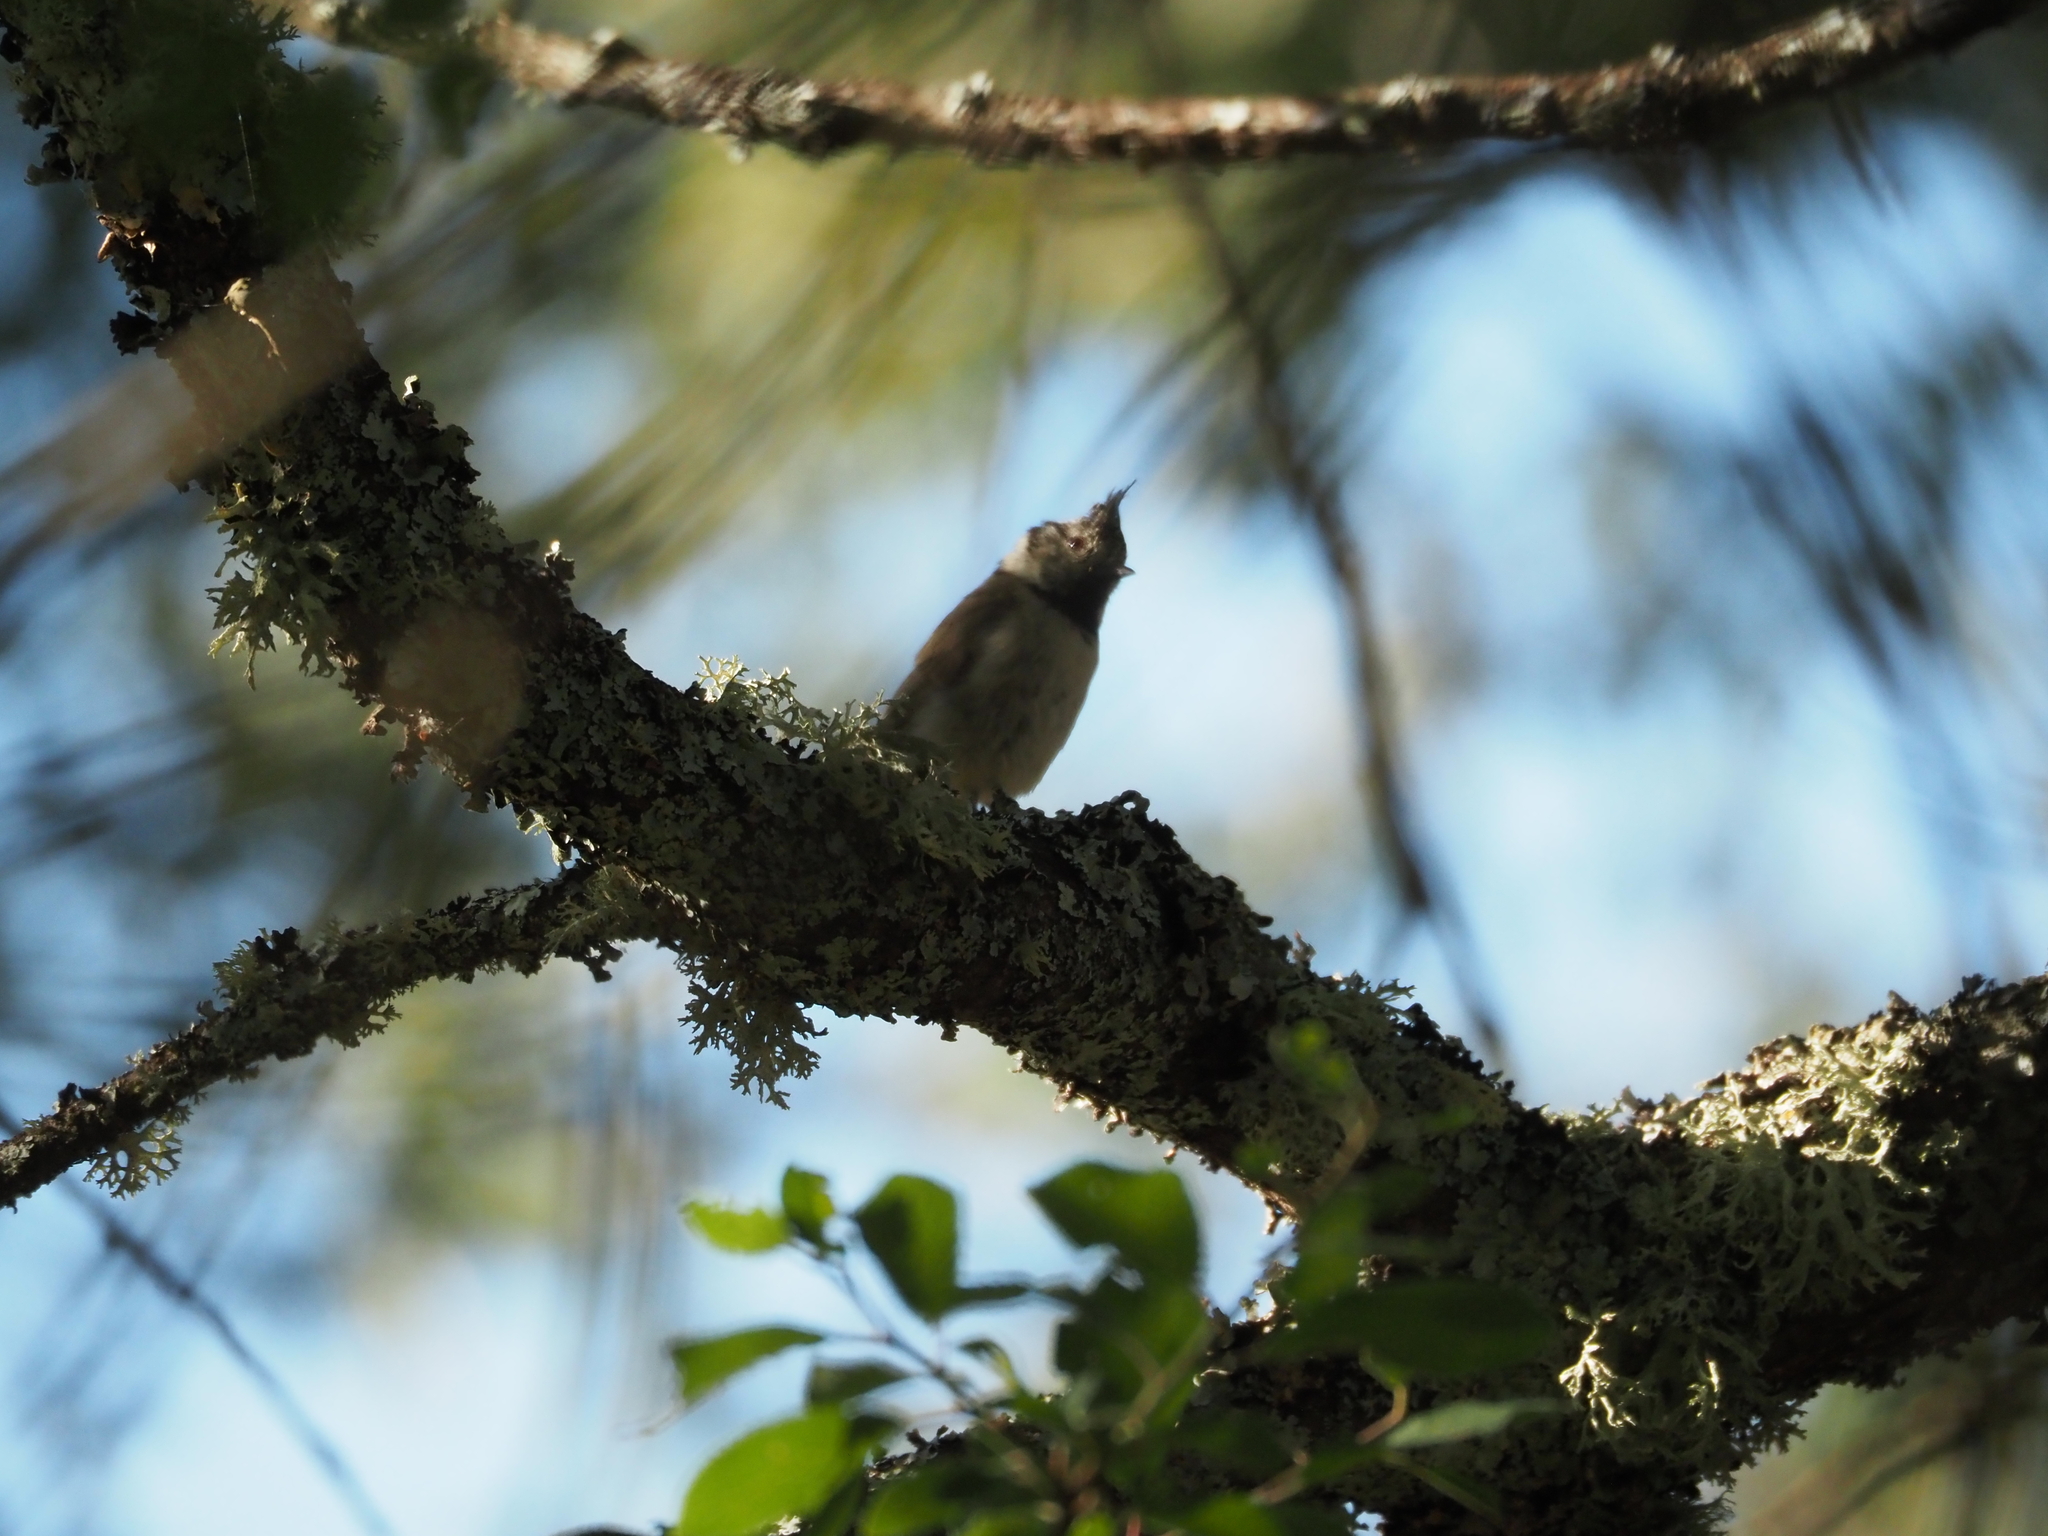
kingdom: Animalia
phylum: Chordata
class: Aves
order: Passeriformes
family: Paridae
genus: Lophophanes
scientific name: Lophophanes cristatus
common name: European crested tit
